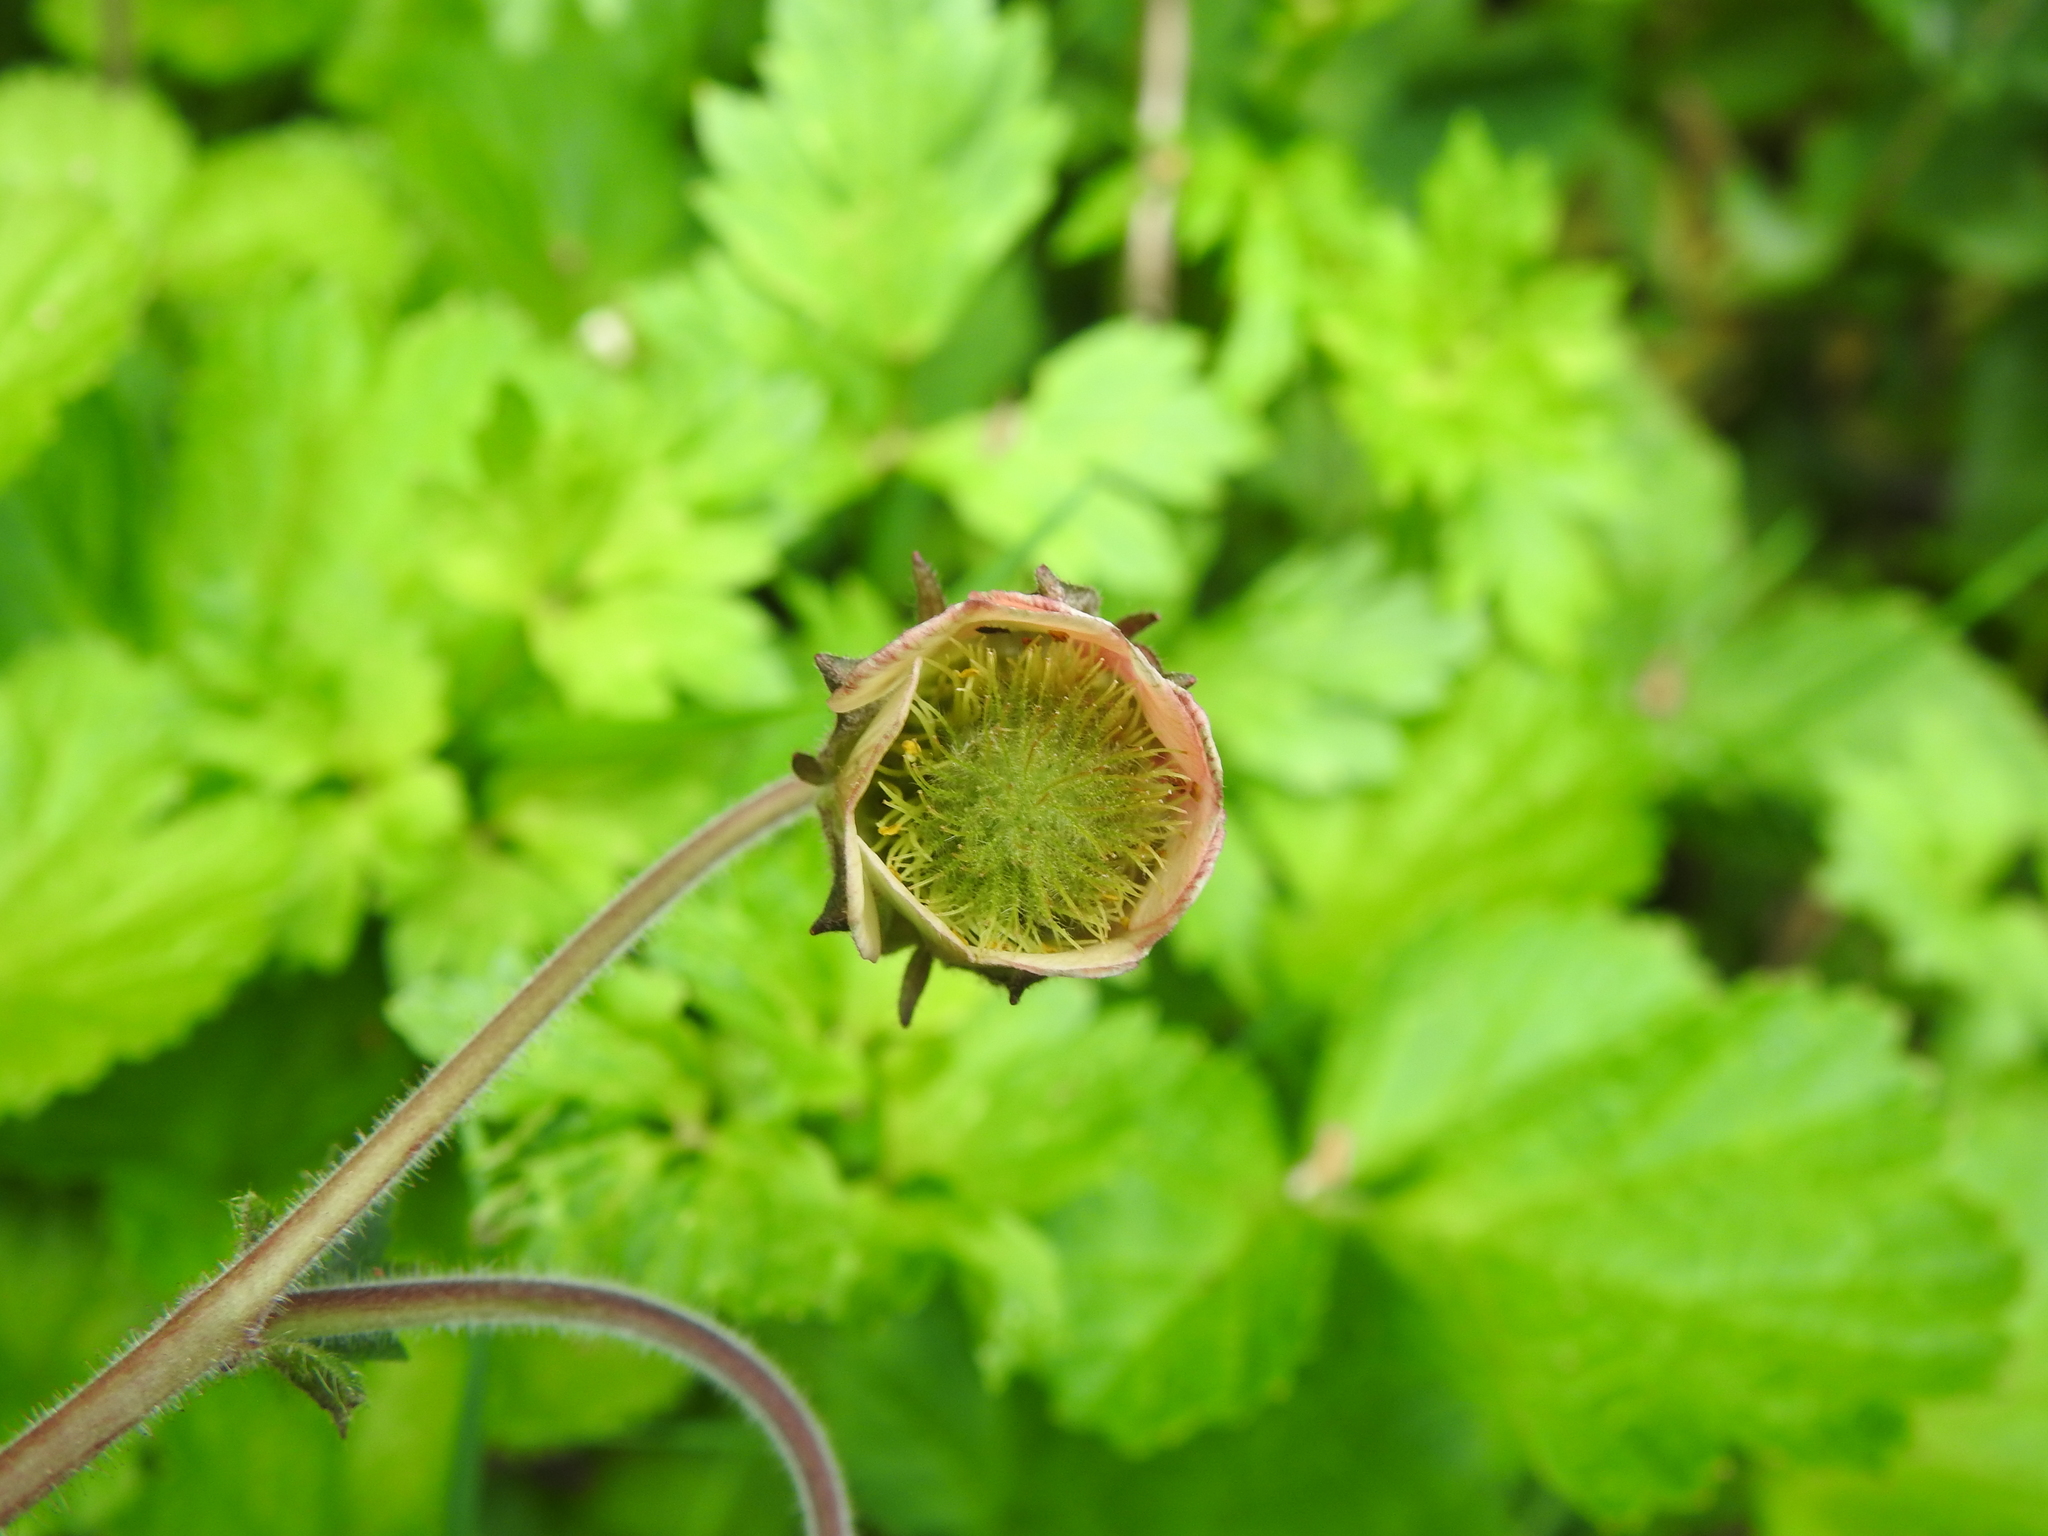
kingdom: Plantae
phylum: Tracheophyta
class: Magnoliopsida
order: Rosales
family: Rosaceae
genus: Geum
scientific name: Geum rivale
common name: Water avens
